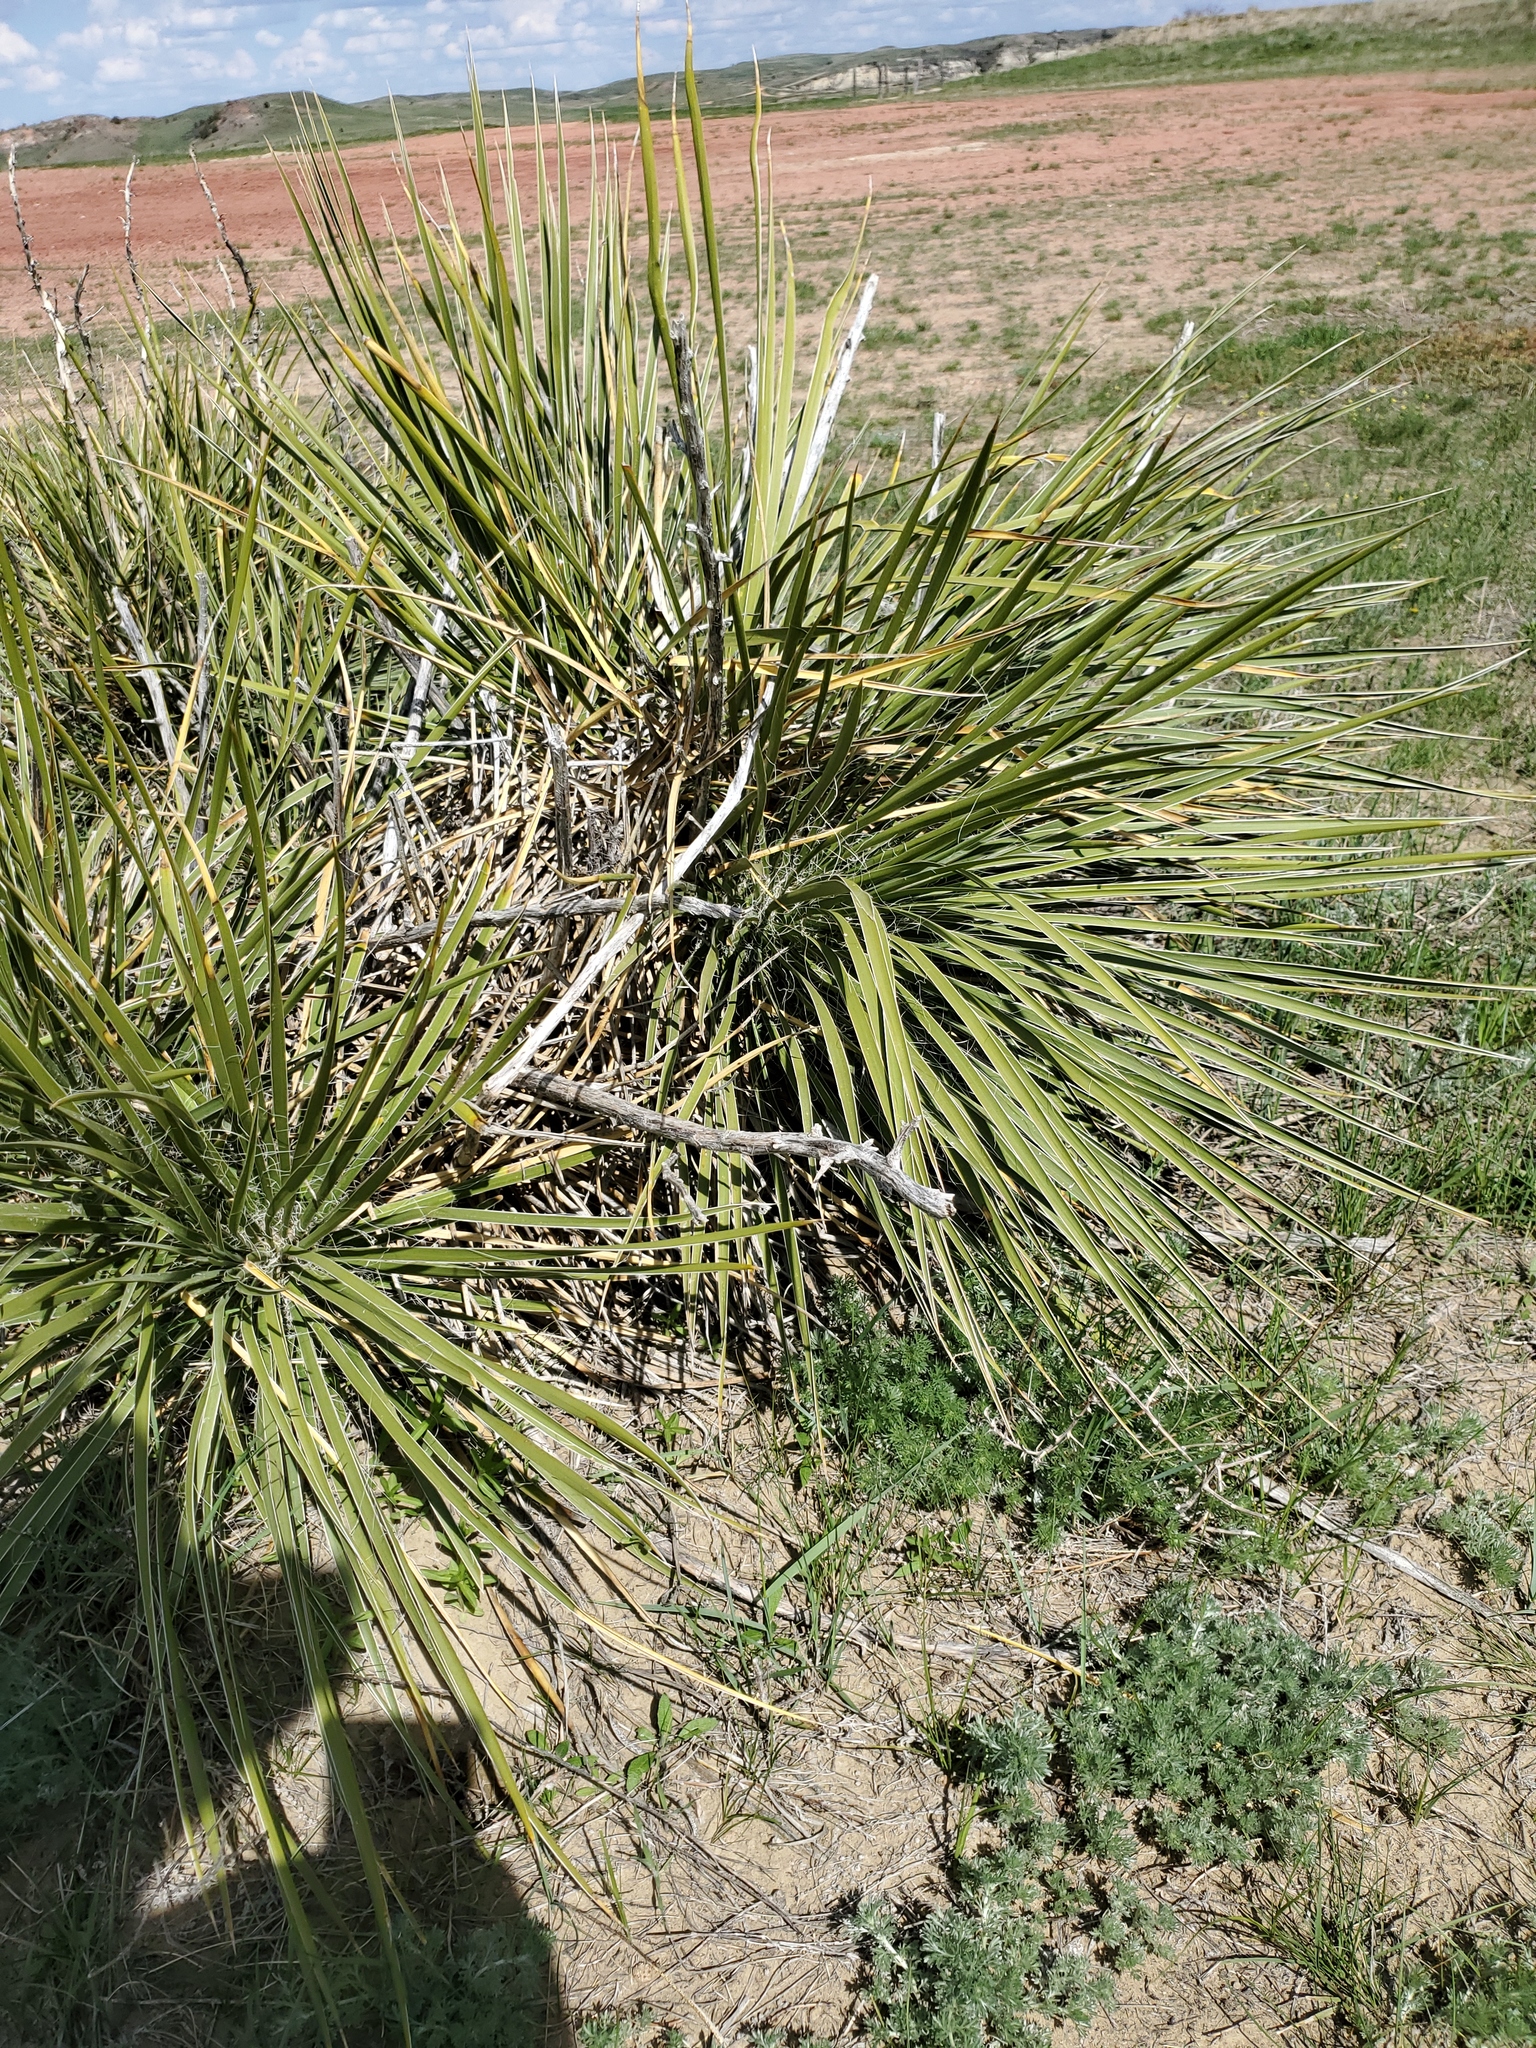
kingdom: Plantae
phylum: Tracheophyta
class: Liliopsida
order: Asparagales
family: Asparagaceae
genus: Yucca
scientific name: Yucca glauca
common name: Great plains yucca
